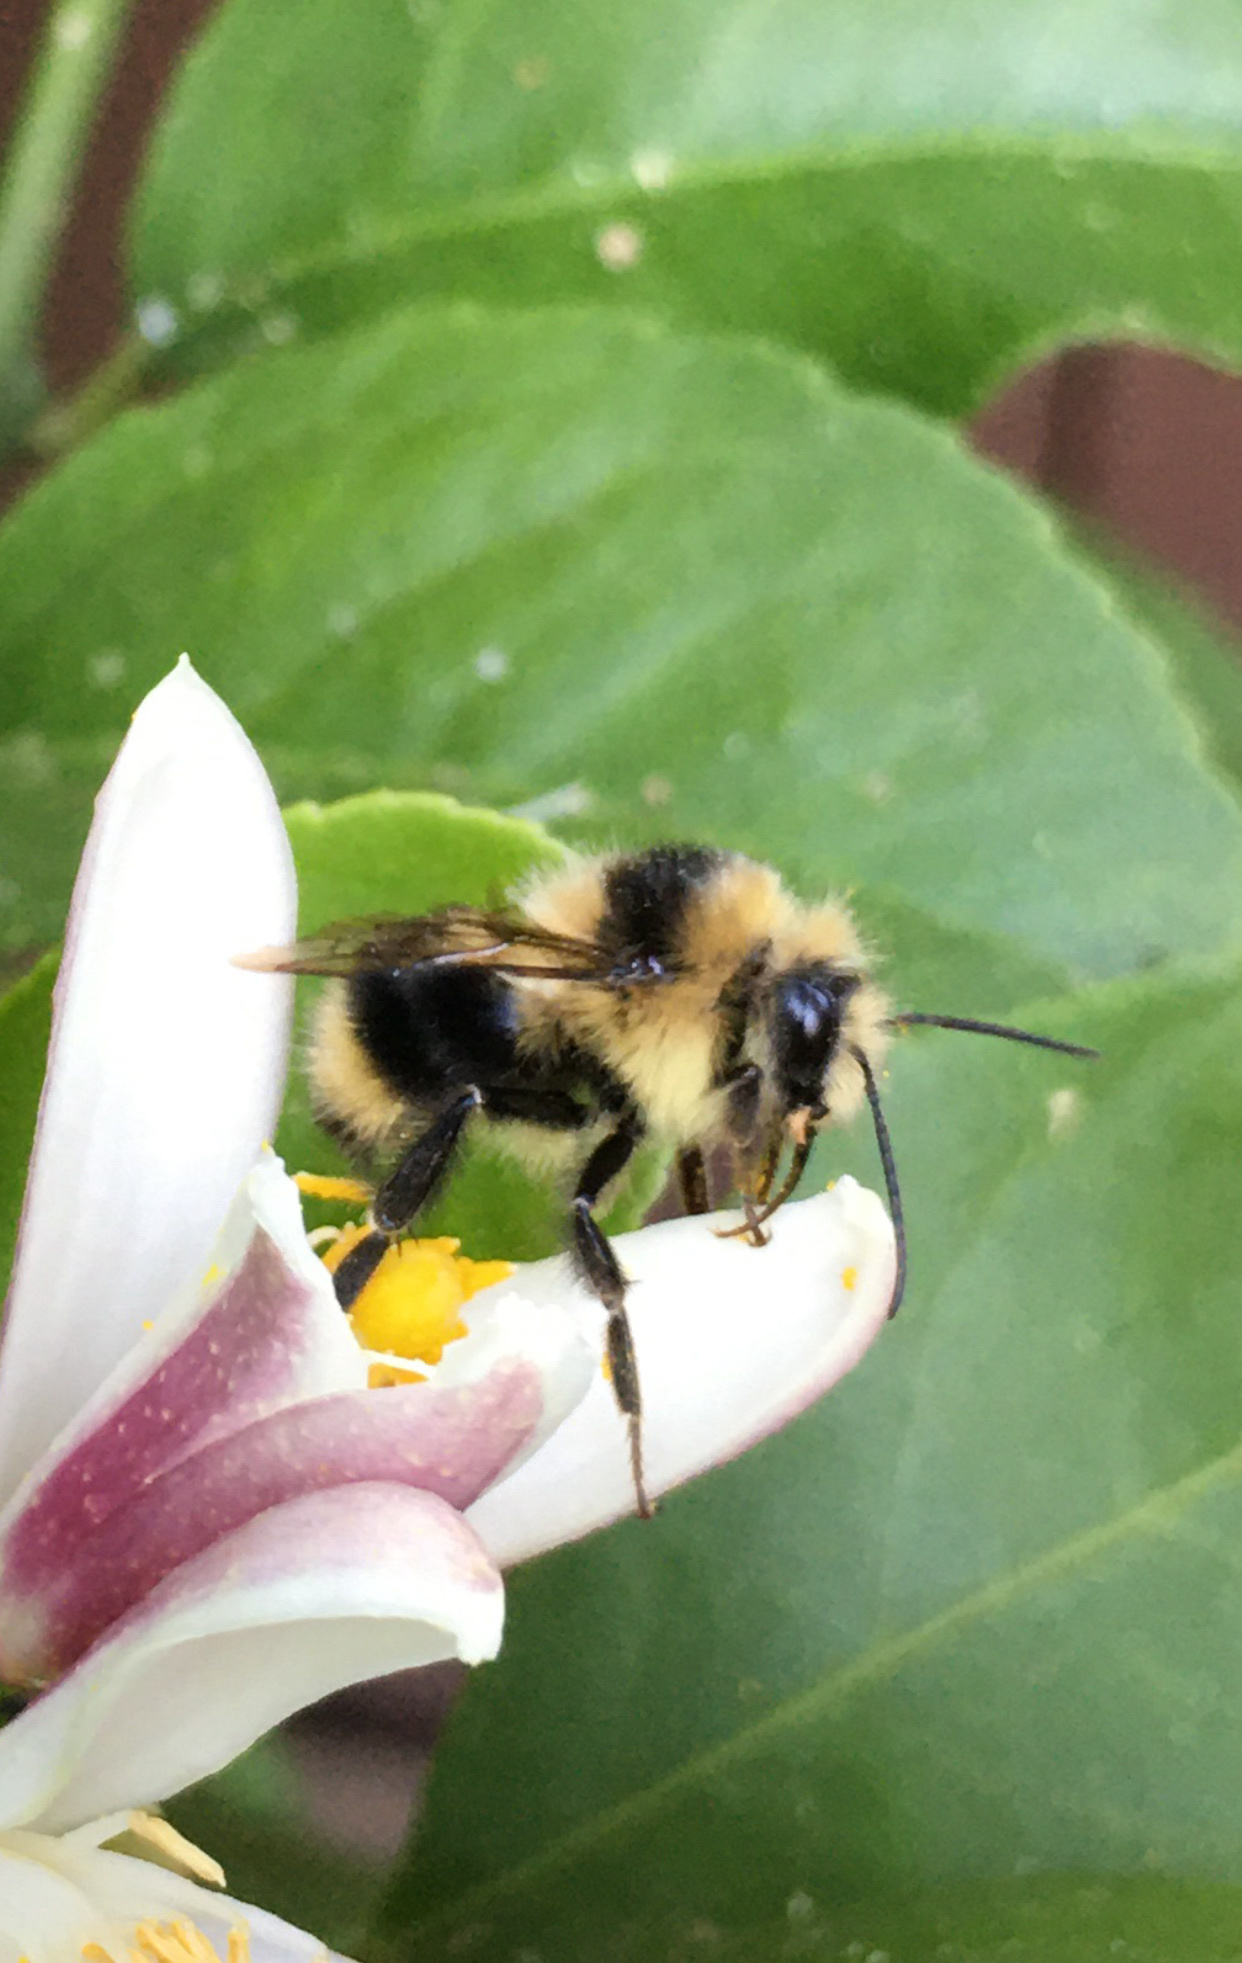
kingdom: Animalia
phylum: Arthropoda
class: Insecta
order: Hymenoptera
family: Apidae
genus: Bombus
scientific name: Bombus melanopygus
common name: Black tail bumble bee
